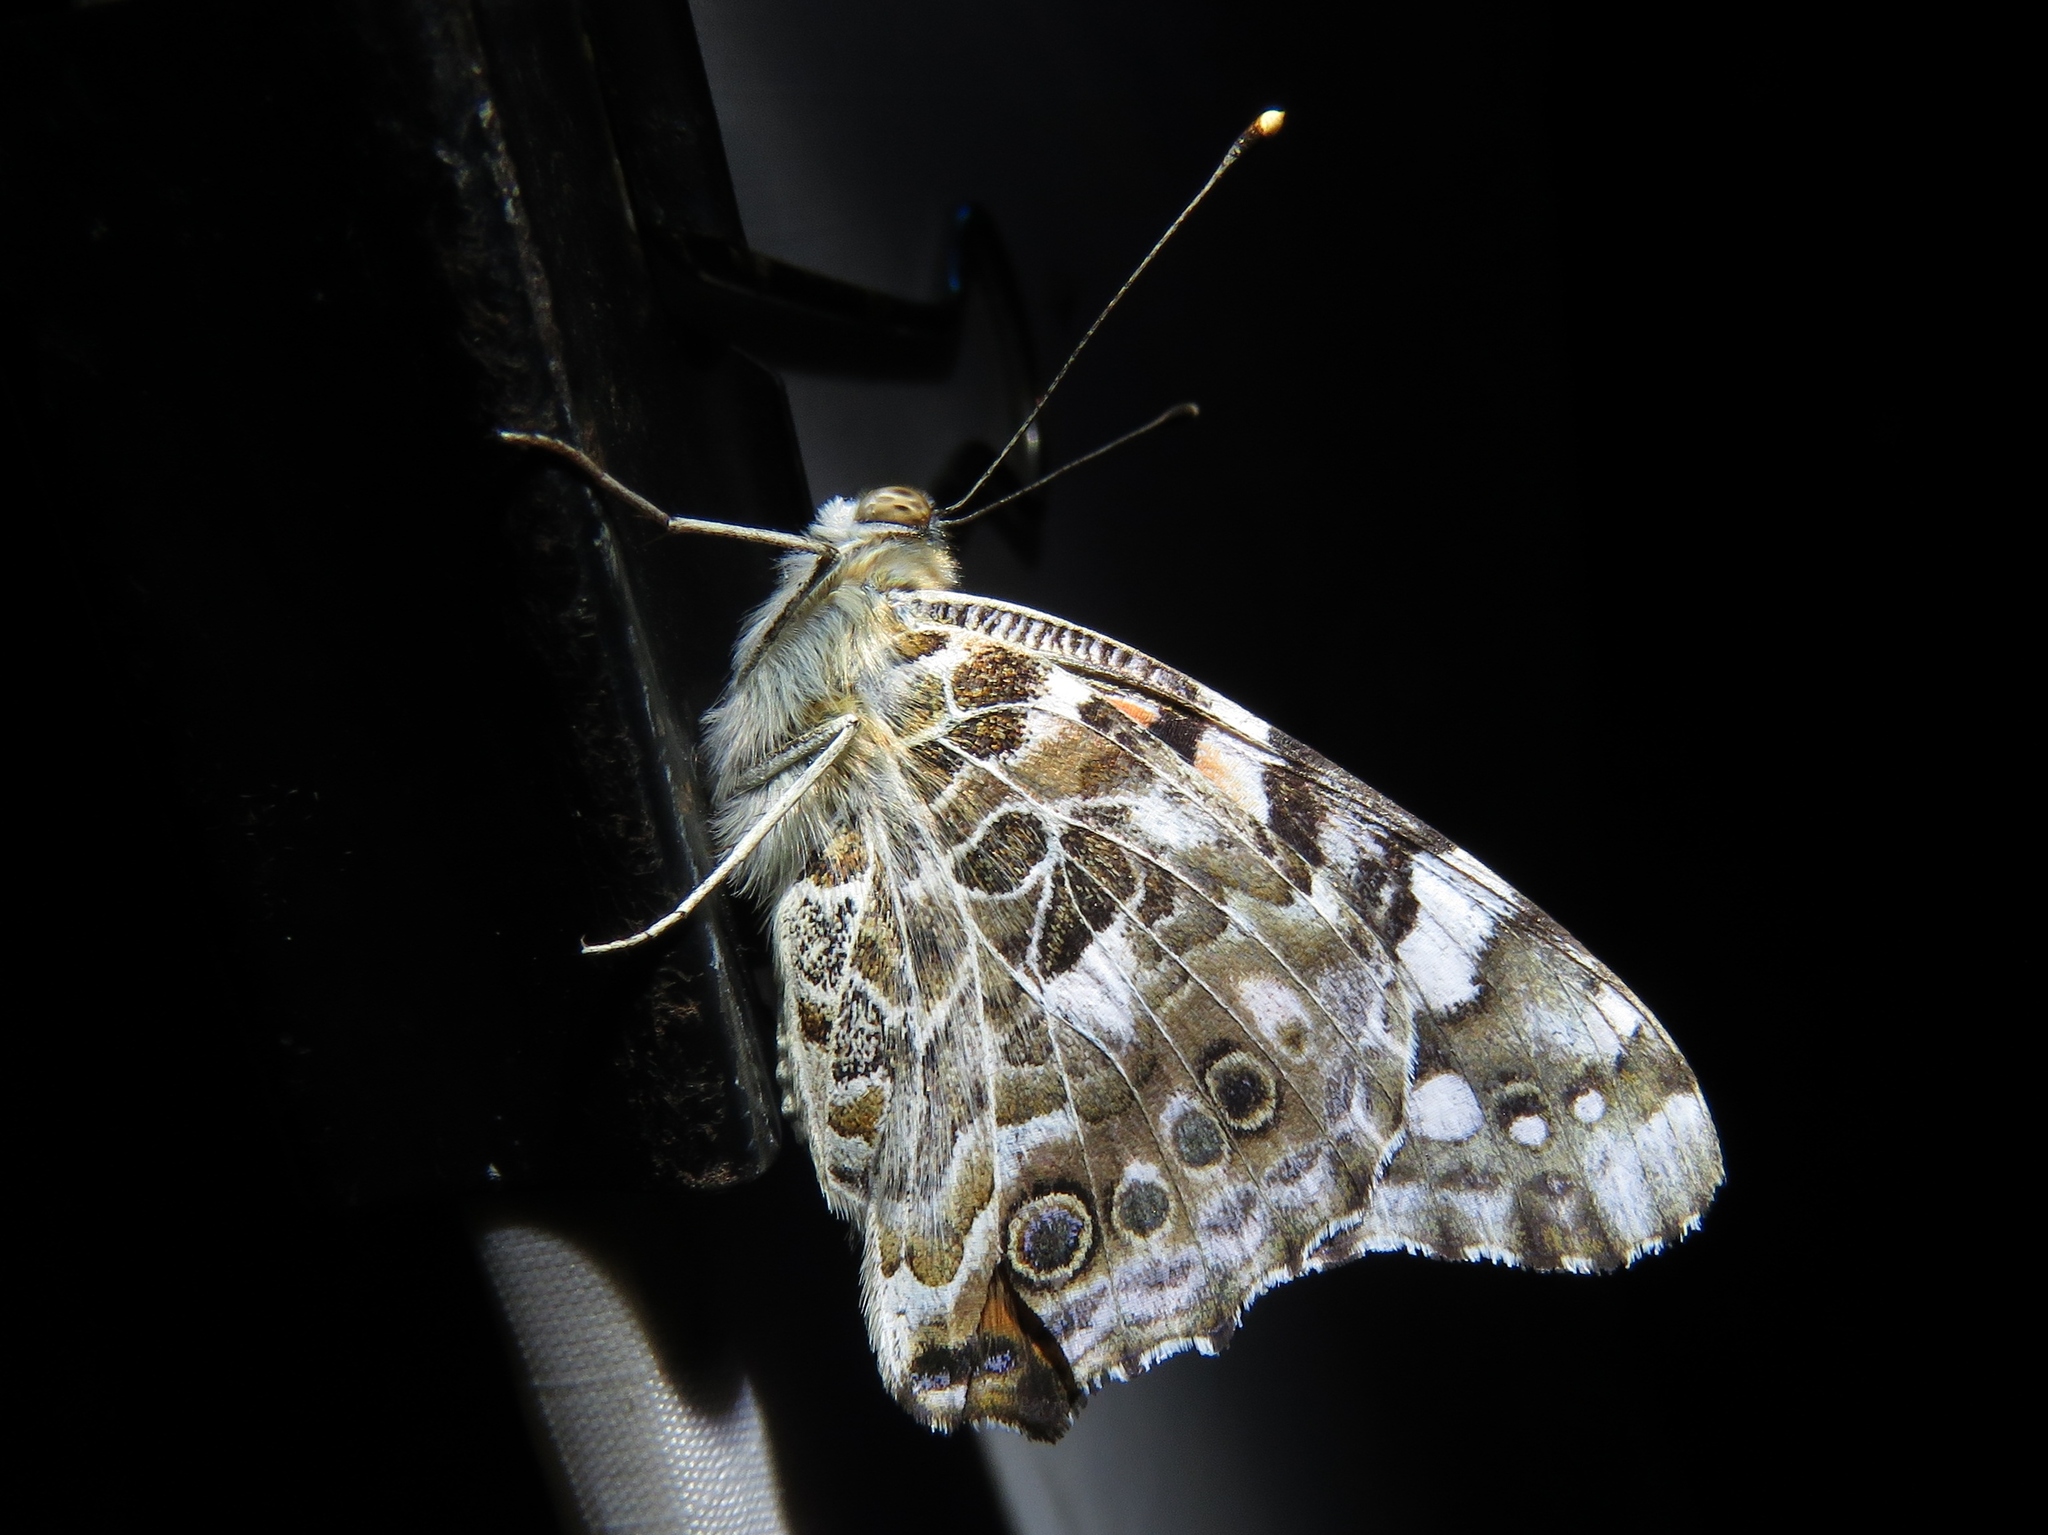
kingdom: Animalia
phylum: Arthropoda
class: Insecta
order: Lepidoptera
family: Nymphalidae
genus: Vanessa
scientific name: Vanessa cardui
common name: Painted lady
